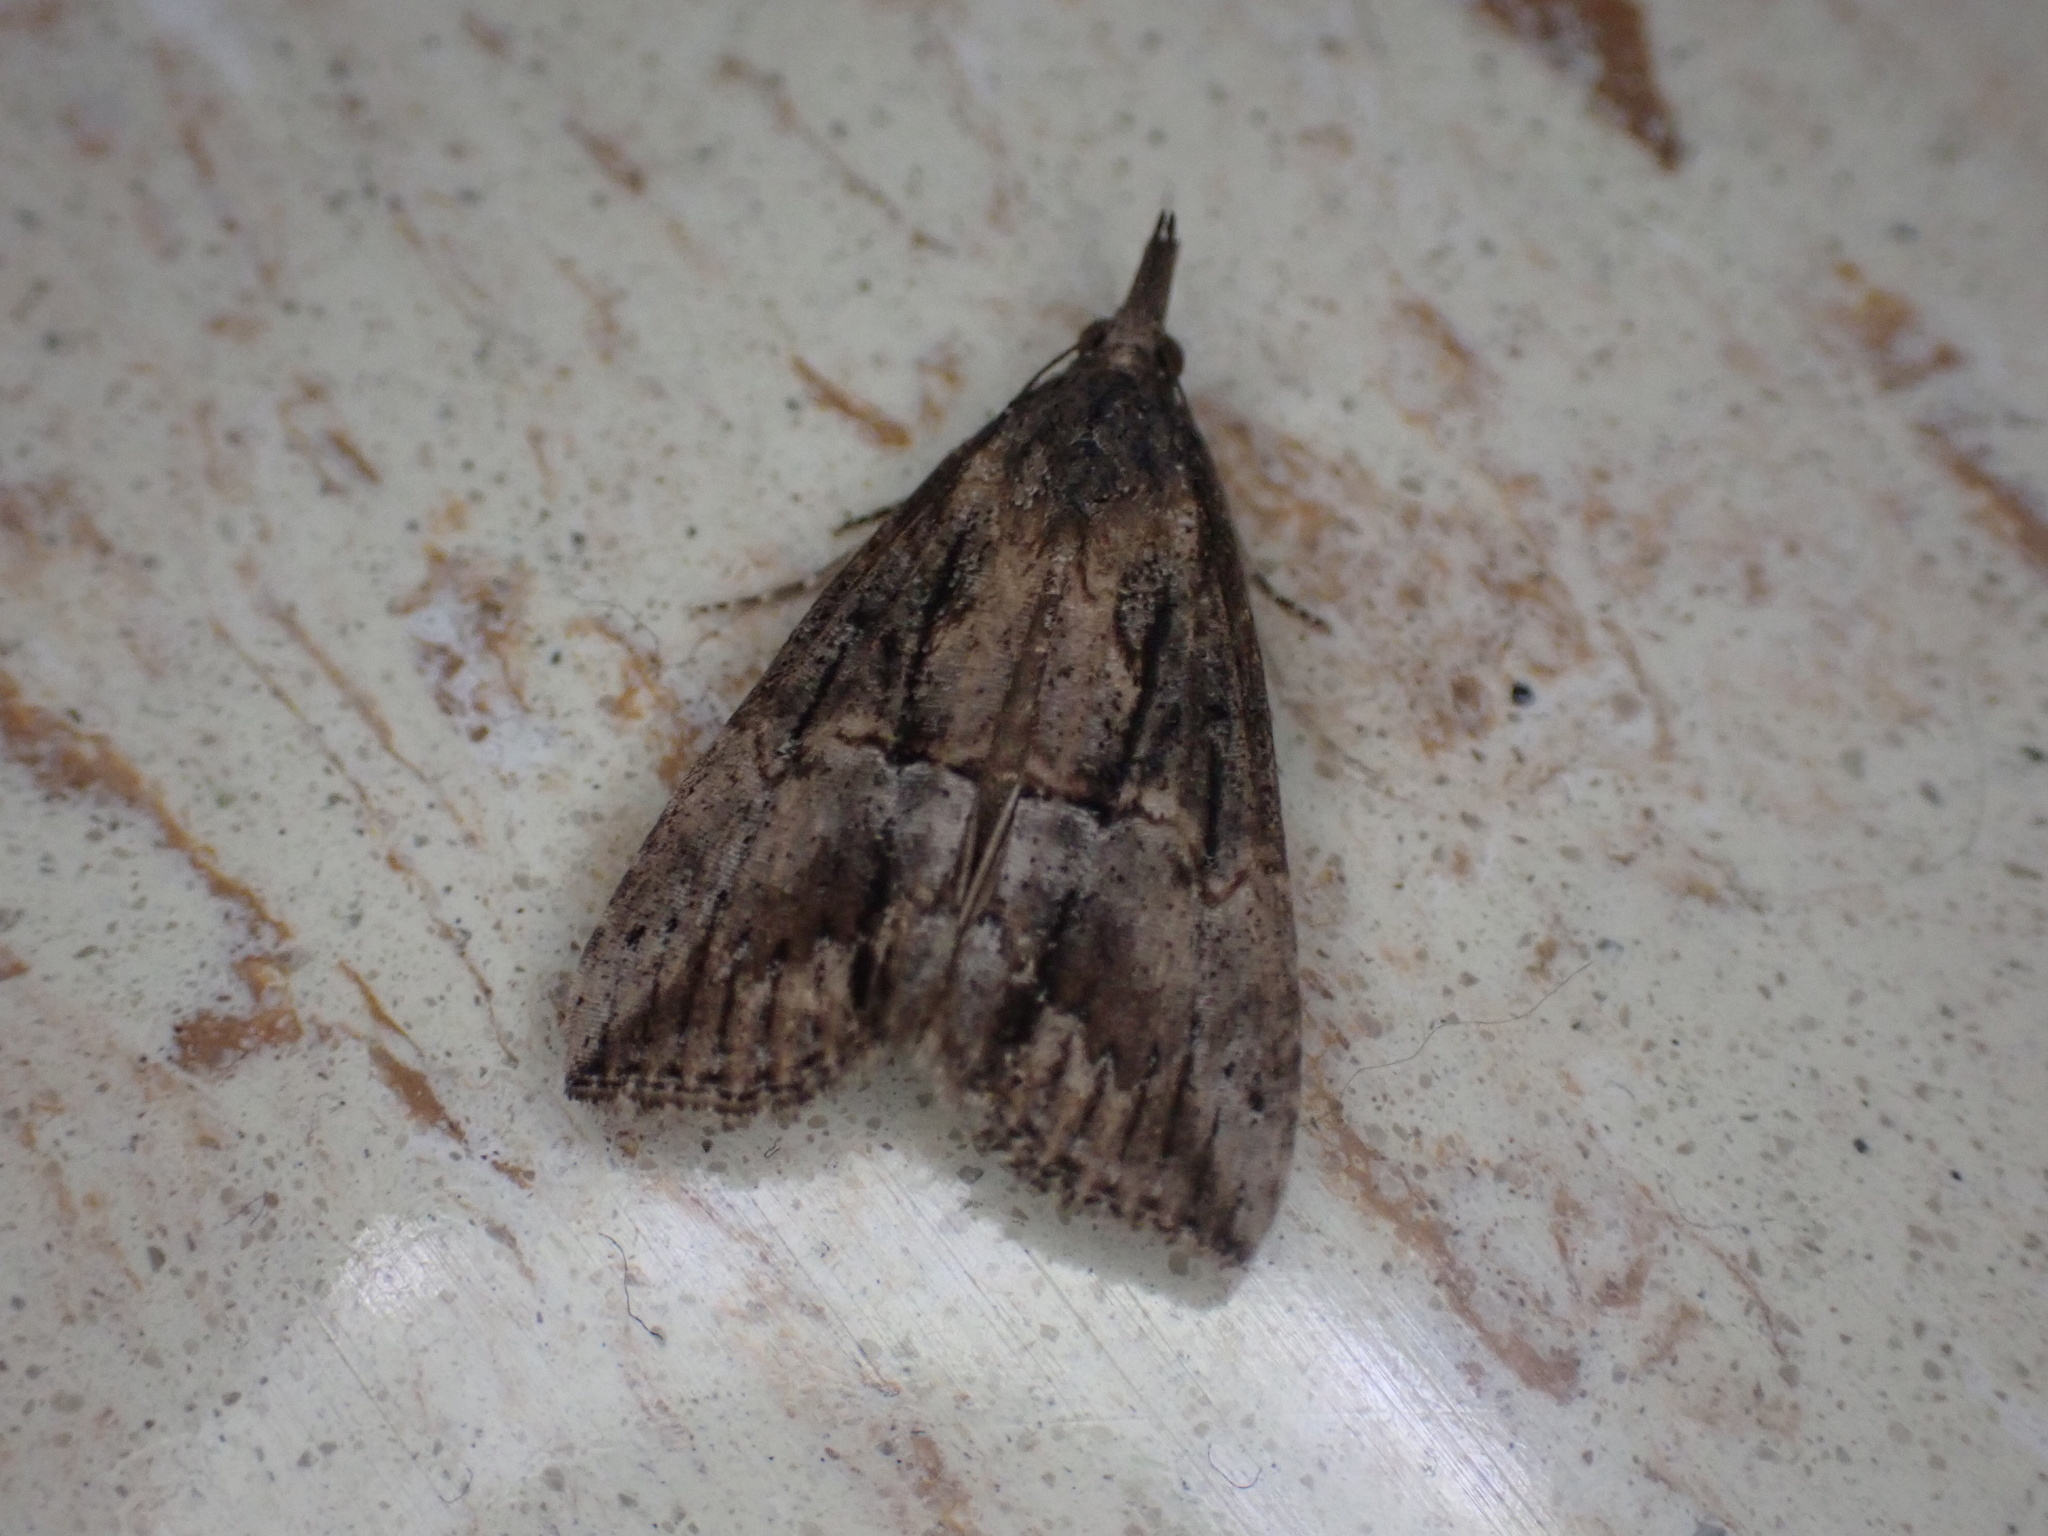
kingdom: Animalia
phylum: Arthropoda
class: Insecta
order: Lepidoptera
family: Erebidae
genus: Hypena
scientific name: Hypena scabra
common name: Green cloverworm
